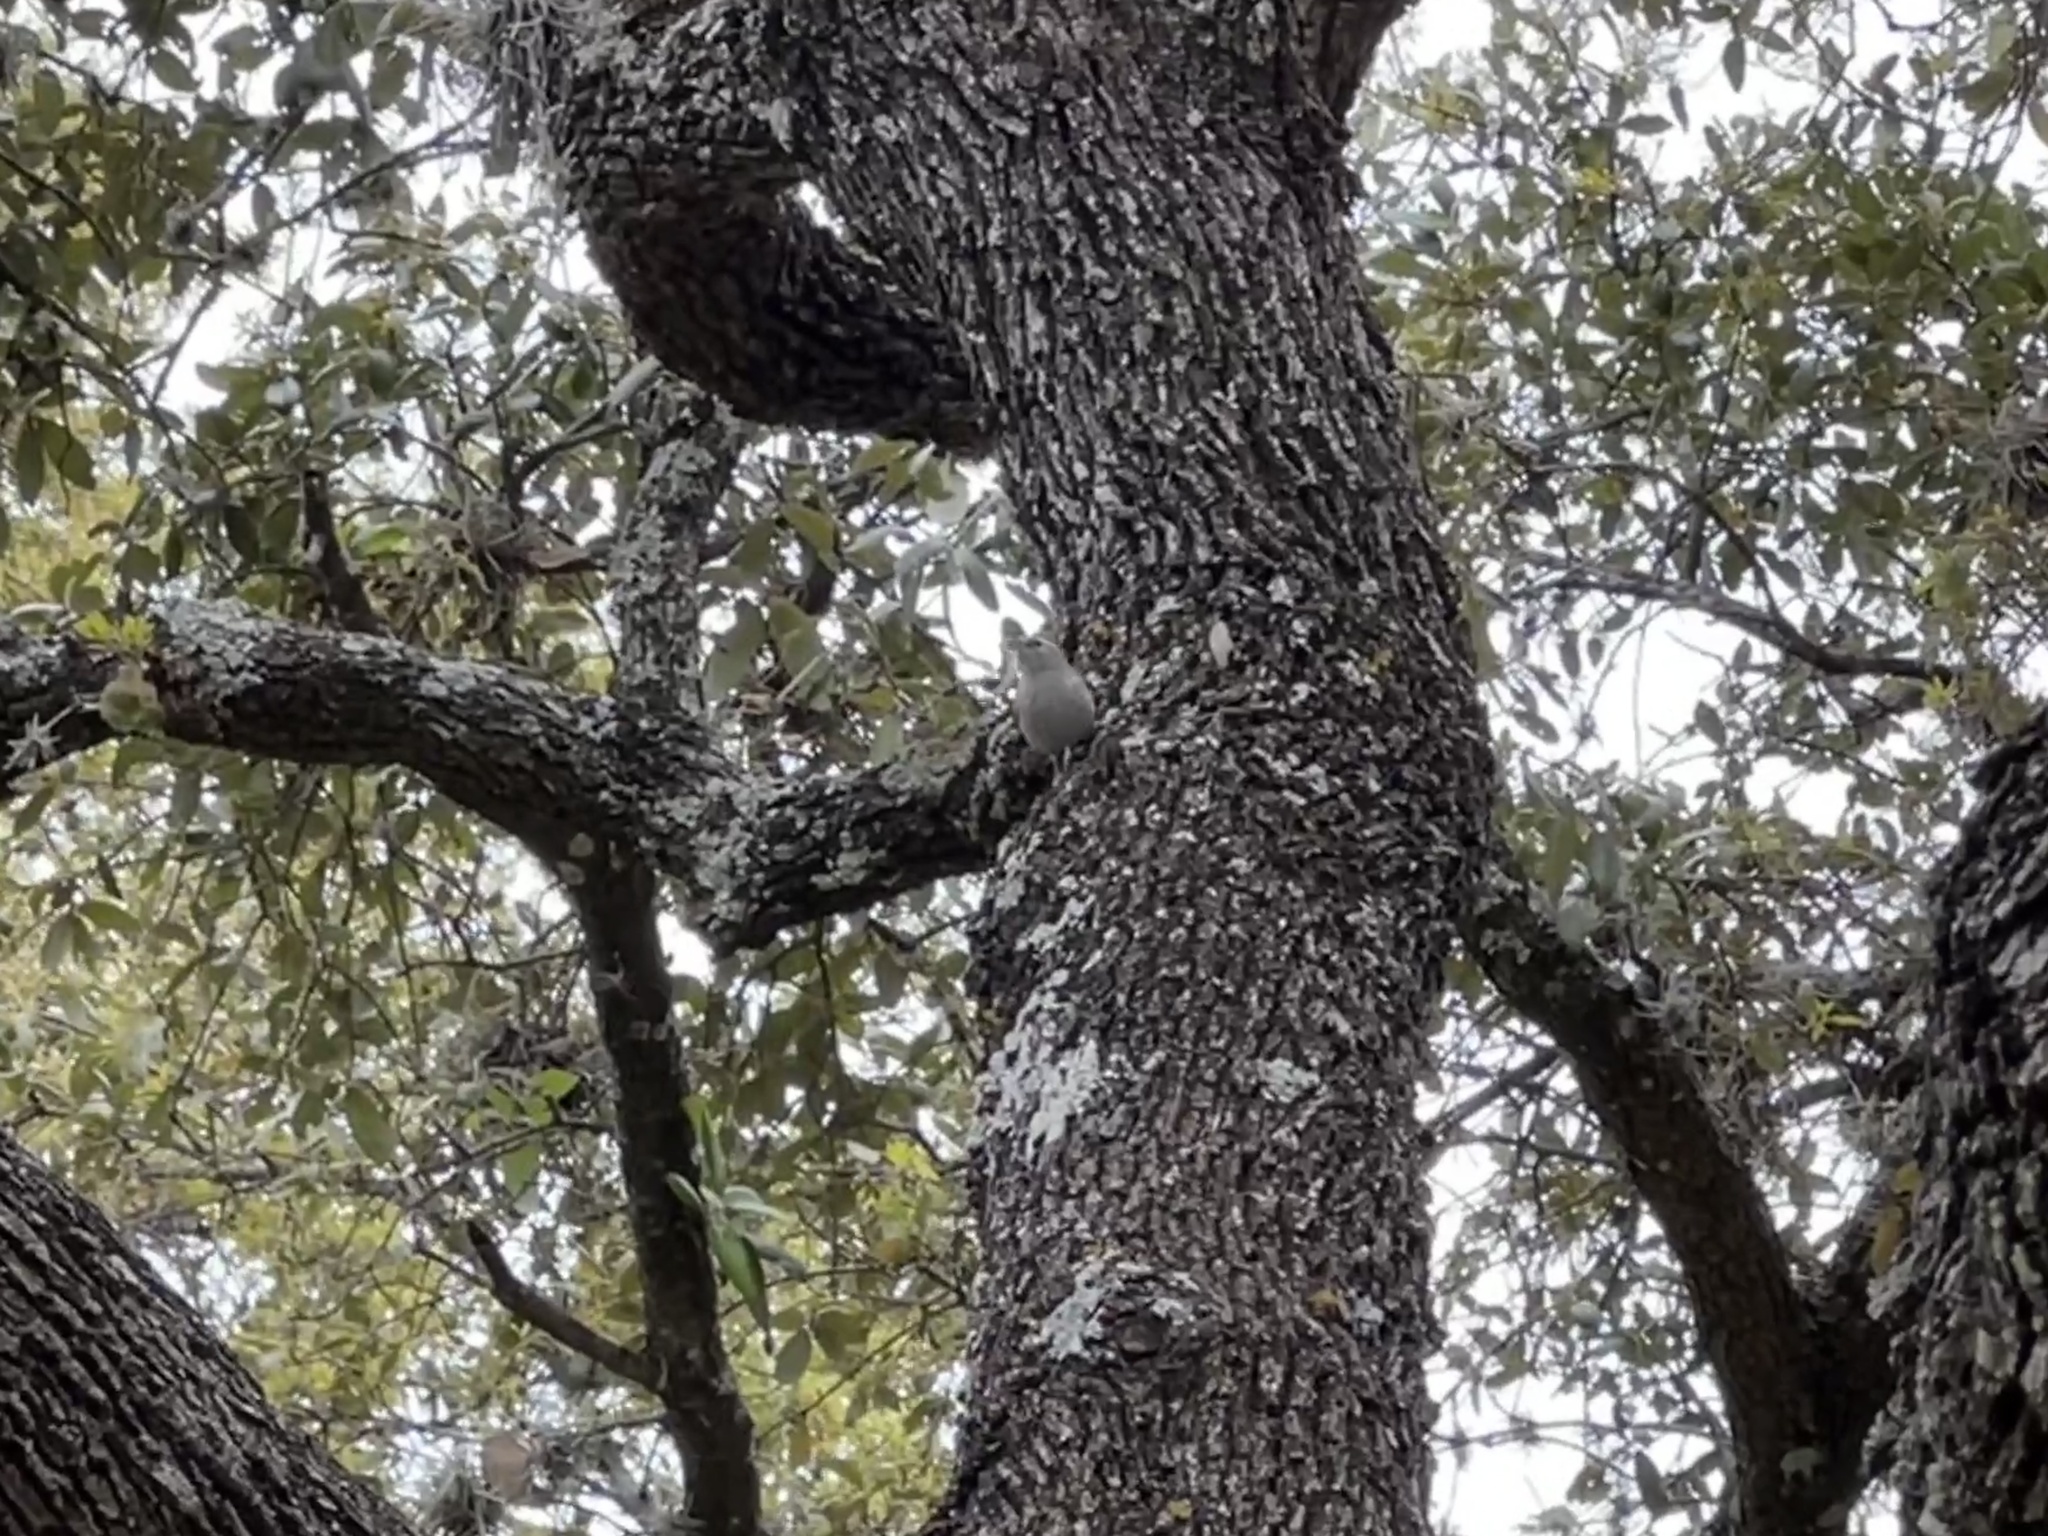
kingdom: Animalia
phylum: Chordata
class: Aves
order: Passeriformes
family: Troglodytidae
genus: Thryomanes
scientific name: Thryomanes bewickii
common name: Bewick's wren
